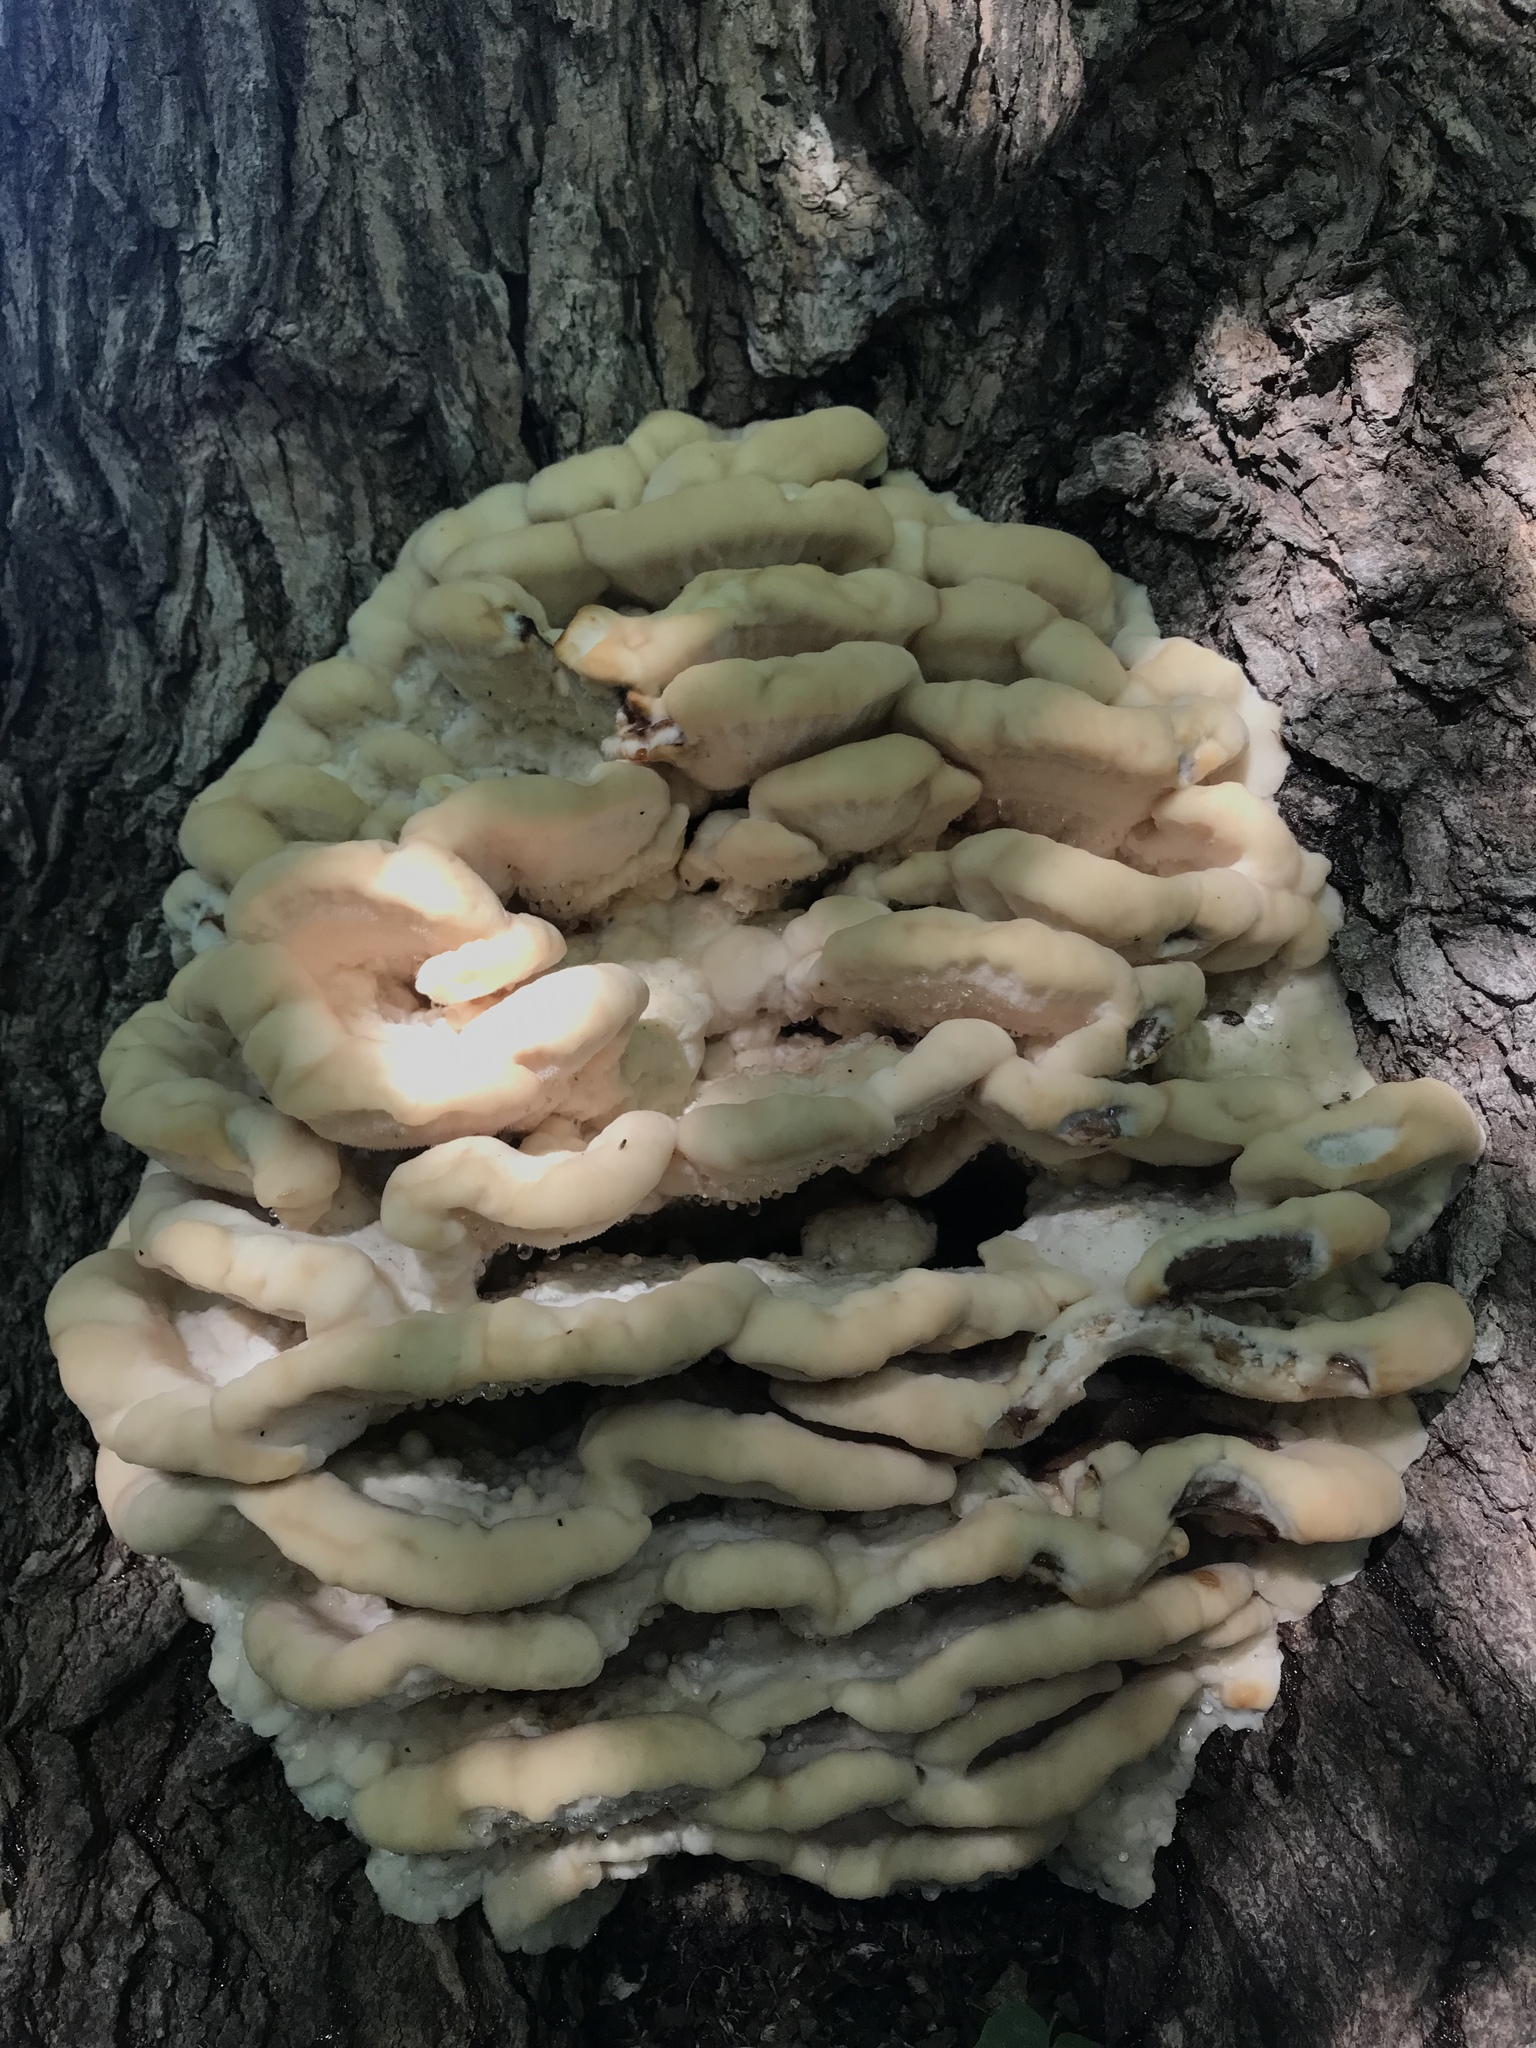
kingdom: Fungi
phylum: Basidiomycota
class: Agaricomycetes
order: Polyporales
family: Meruliaceae
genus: Climacodon
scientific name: Climacodon septentrionalis
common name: Northern tooth
